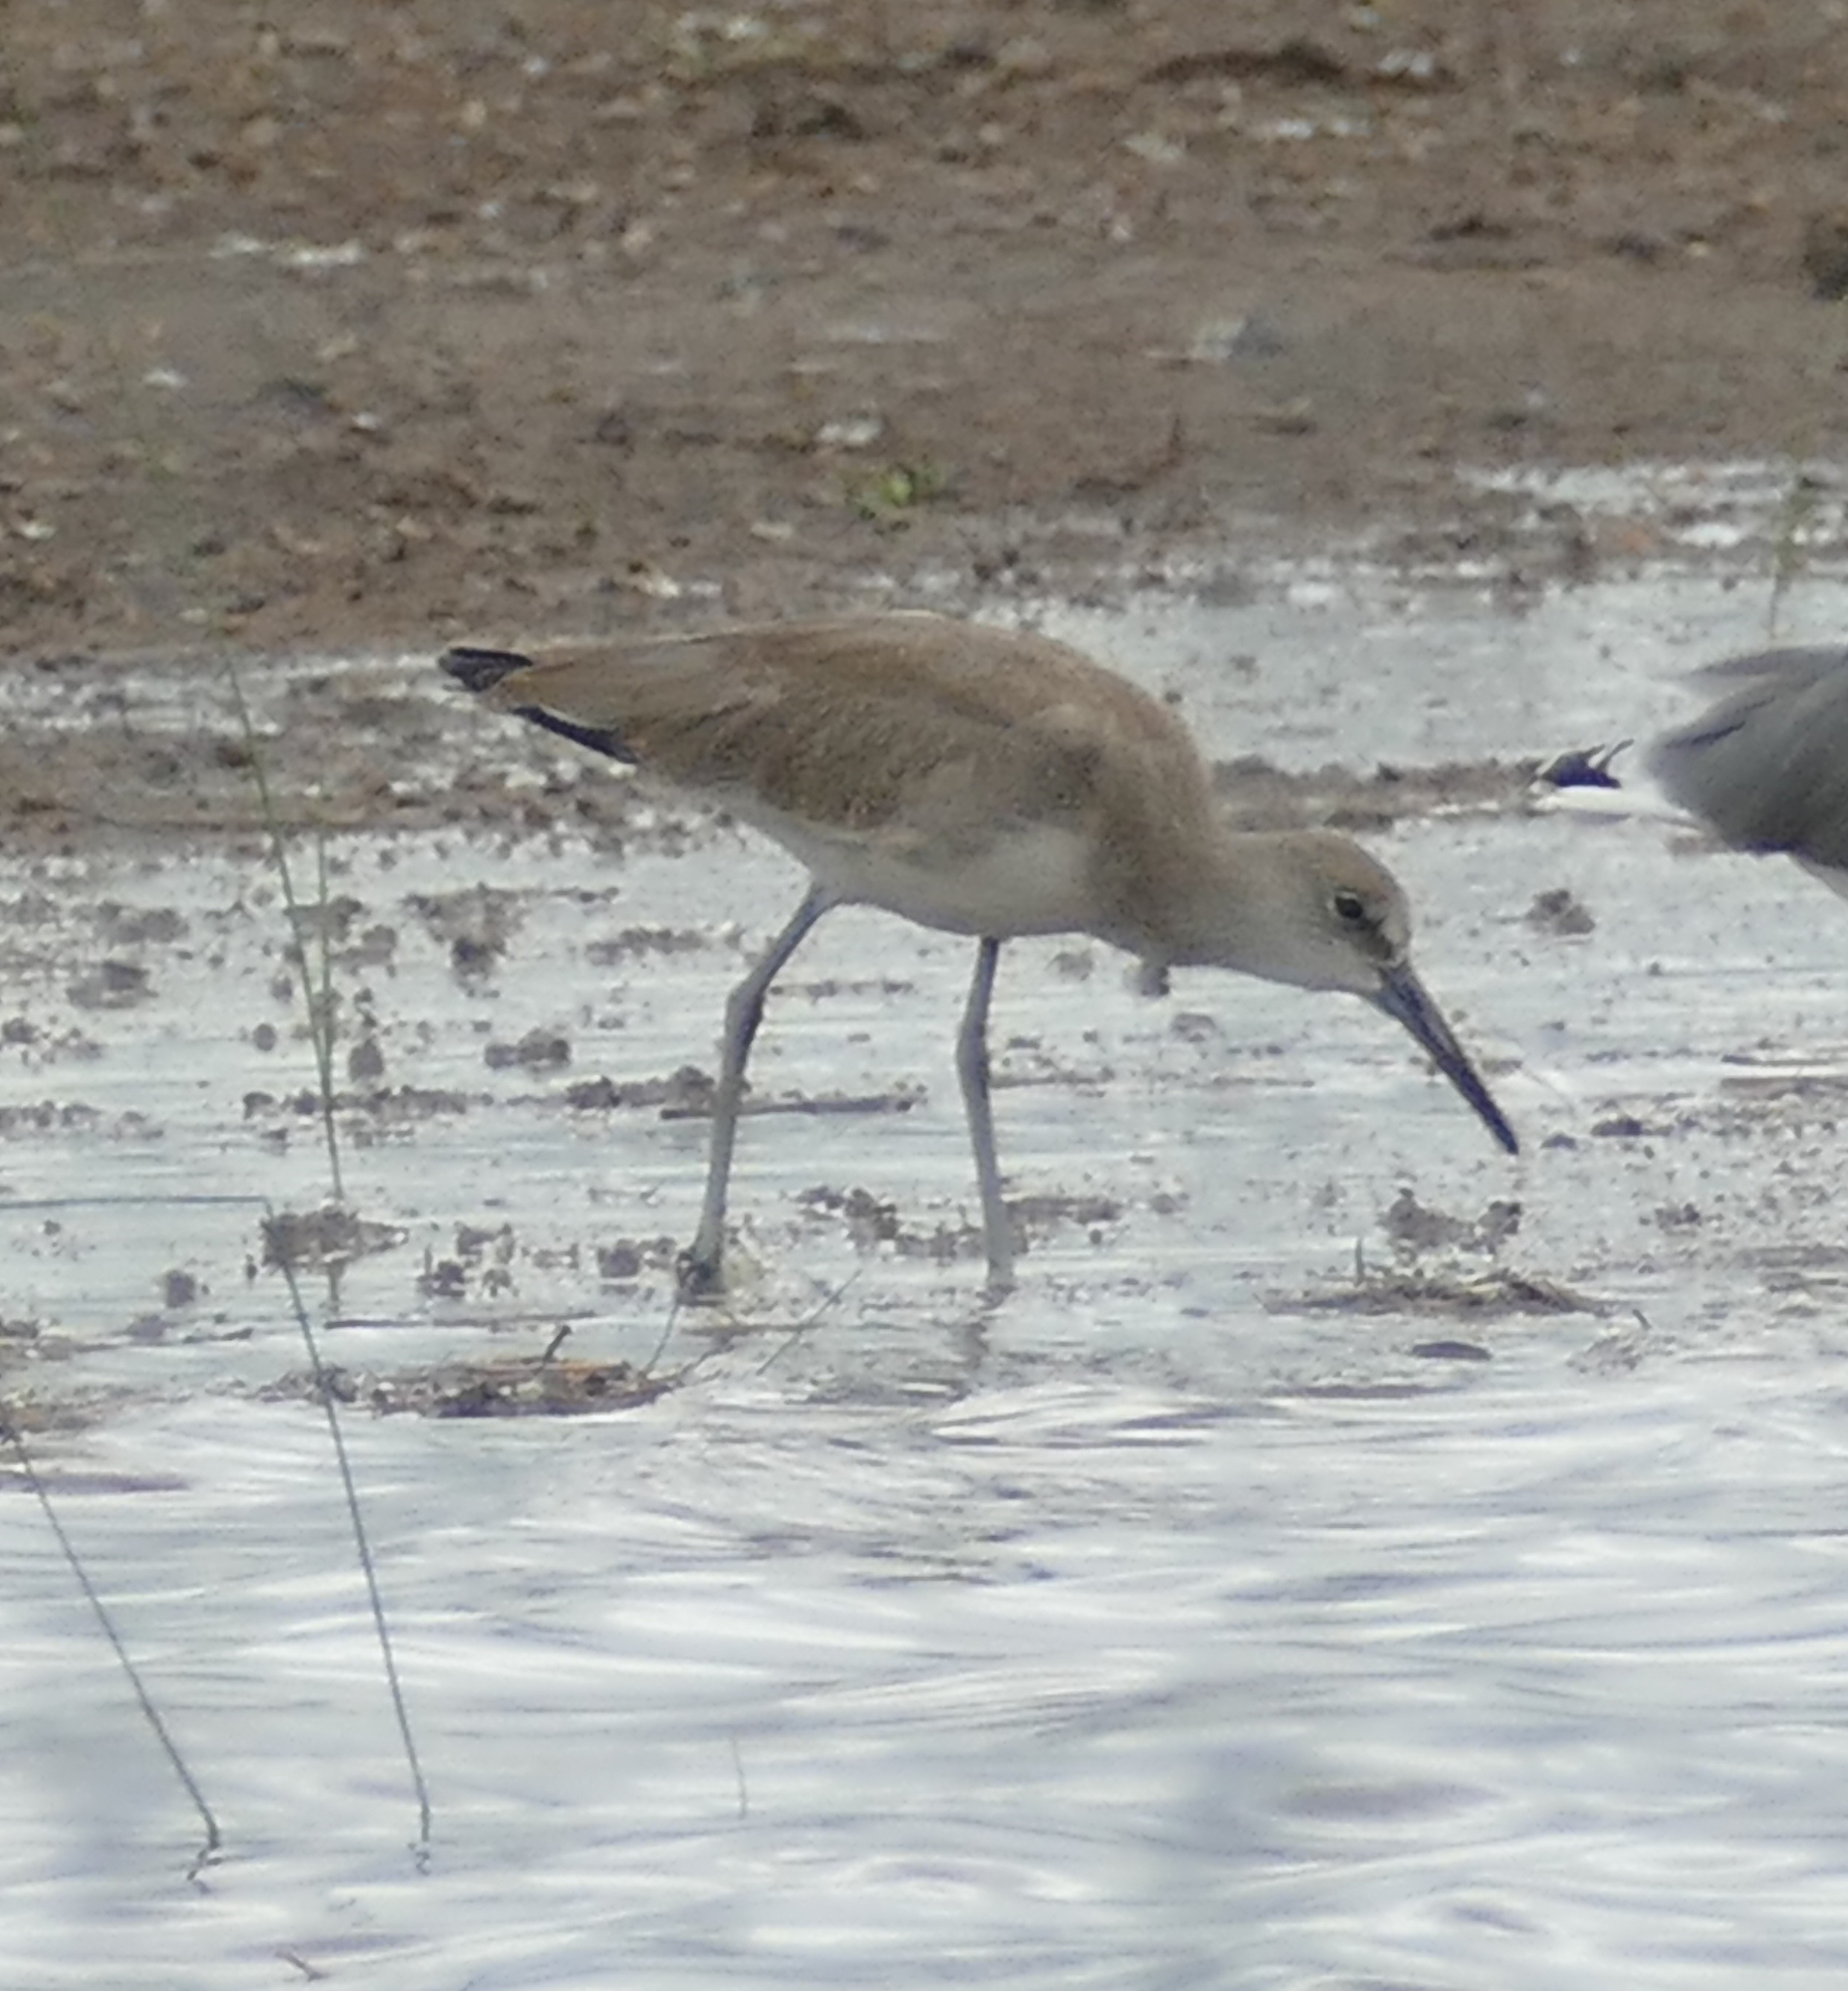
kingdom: Animalia
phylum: Chordata
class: Aves
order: Charadriiformes
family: Scolopacidae
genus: Tringa
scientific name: Tringa semipalmata
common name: Willet
